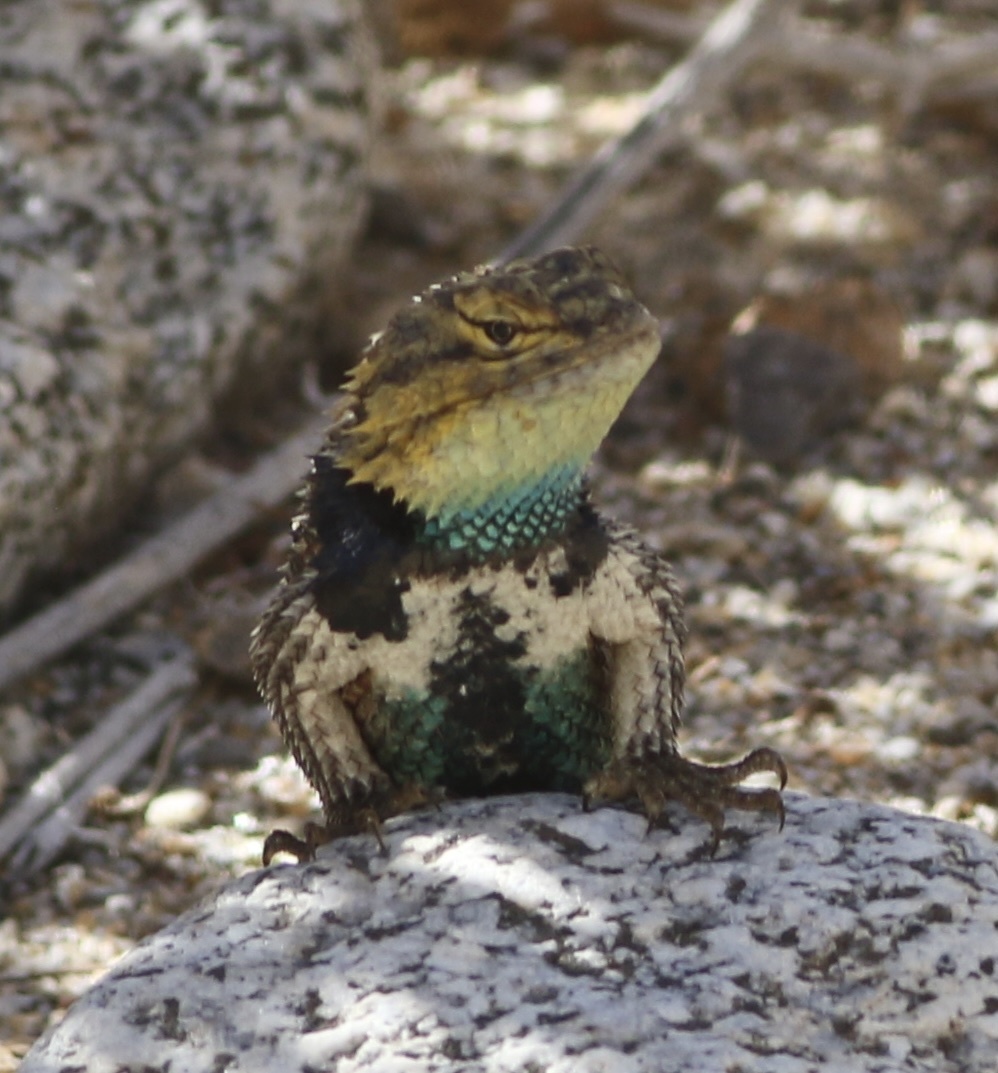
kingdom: Animalia
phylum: Chordata
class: Squamata
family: Phrynosomatidae
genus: Sceloporus
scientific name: Sceloporus magister
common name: Desert spiny lizard
